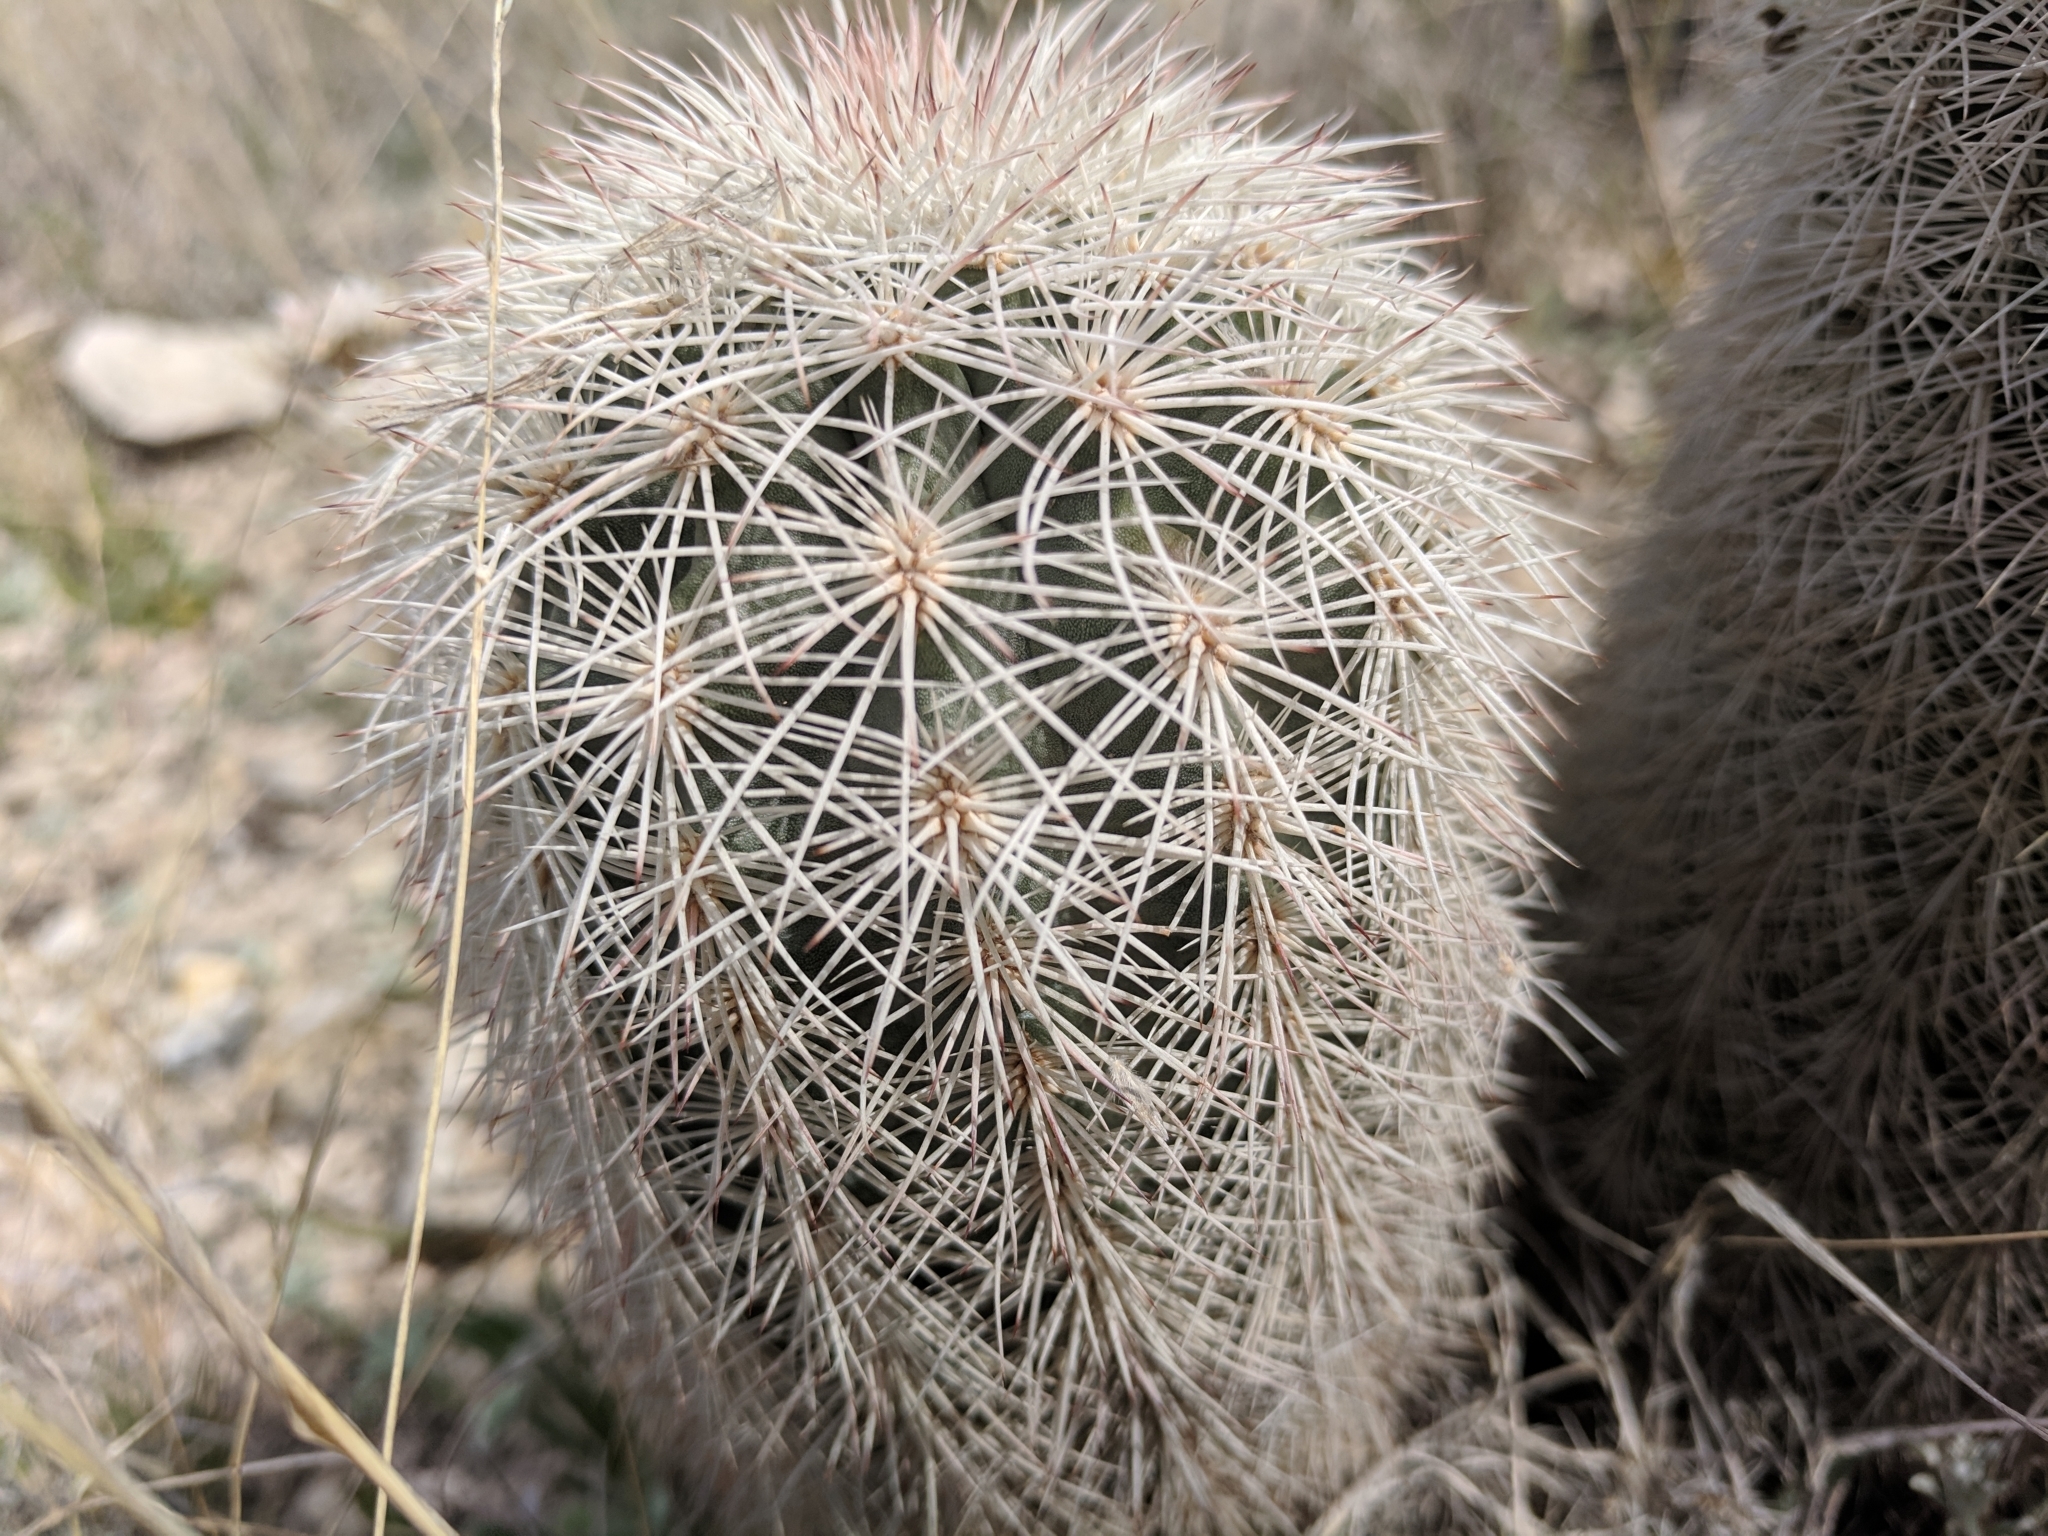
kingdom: Plantae
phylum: Tracheophyta
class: Magnoliopsida
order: Caryophyllales
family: Cactaceae
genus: Echinocereus
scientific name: Echinocereus dasyacanthus
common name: Spiny hedgehog cactus
